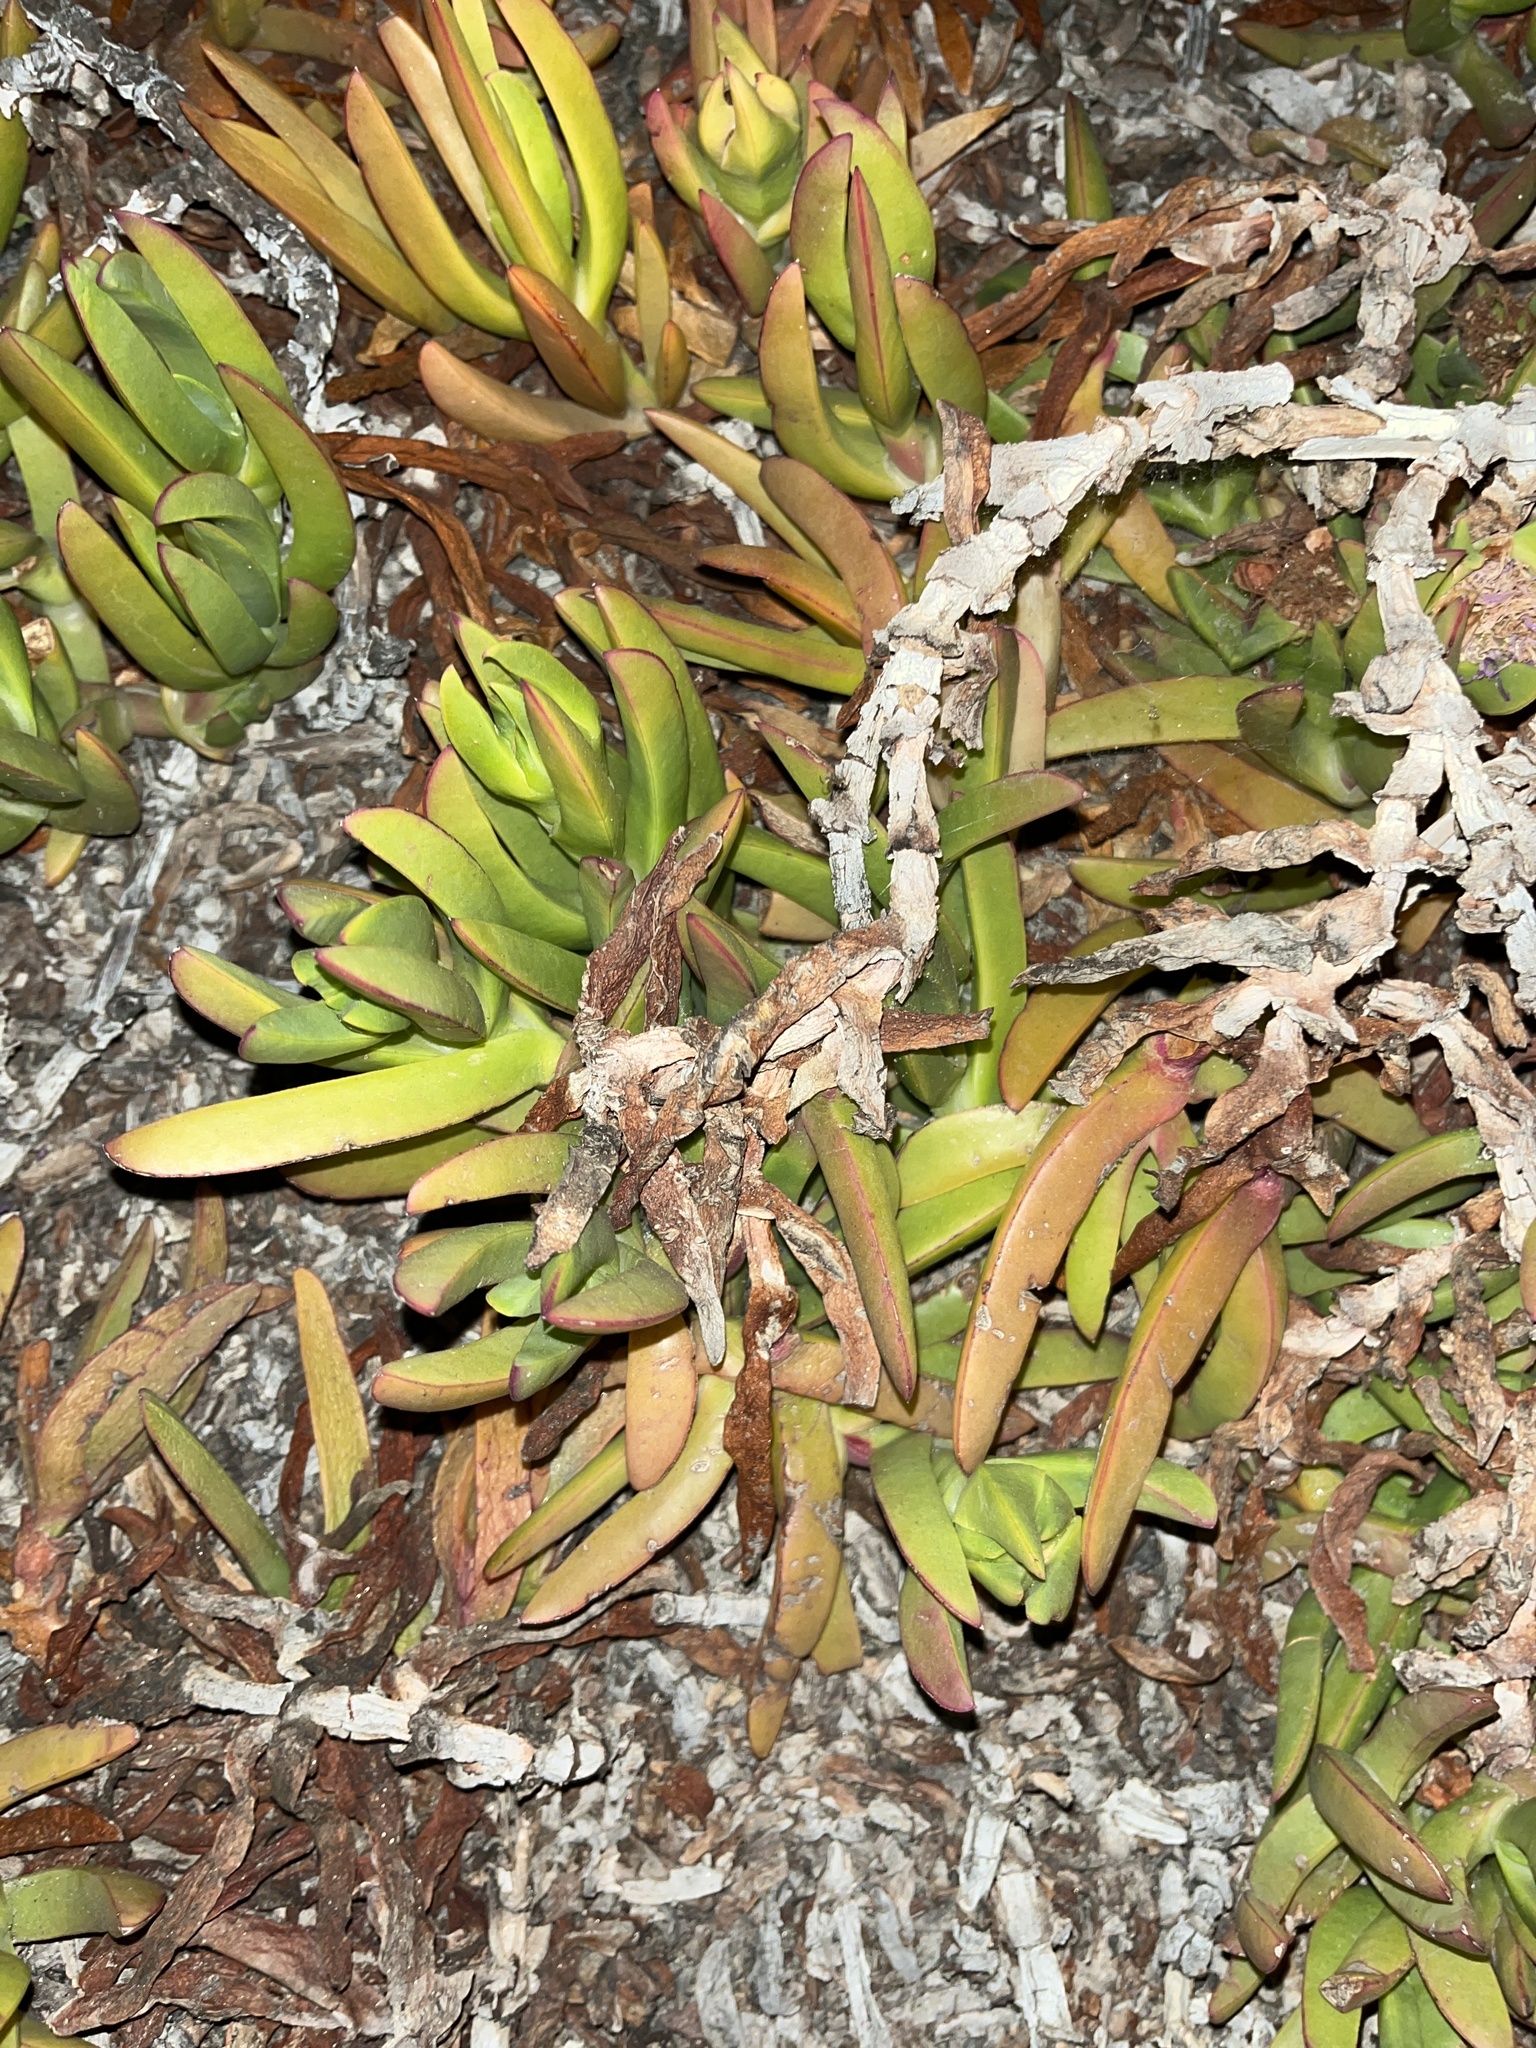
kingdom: Plantae
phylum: Tracheophyta
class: Magnoliopsida
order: Caryophyllales
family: Aizoaceae
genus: Carpobrotus
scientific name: Carpobrotus chilensis
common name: Sea fig
